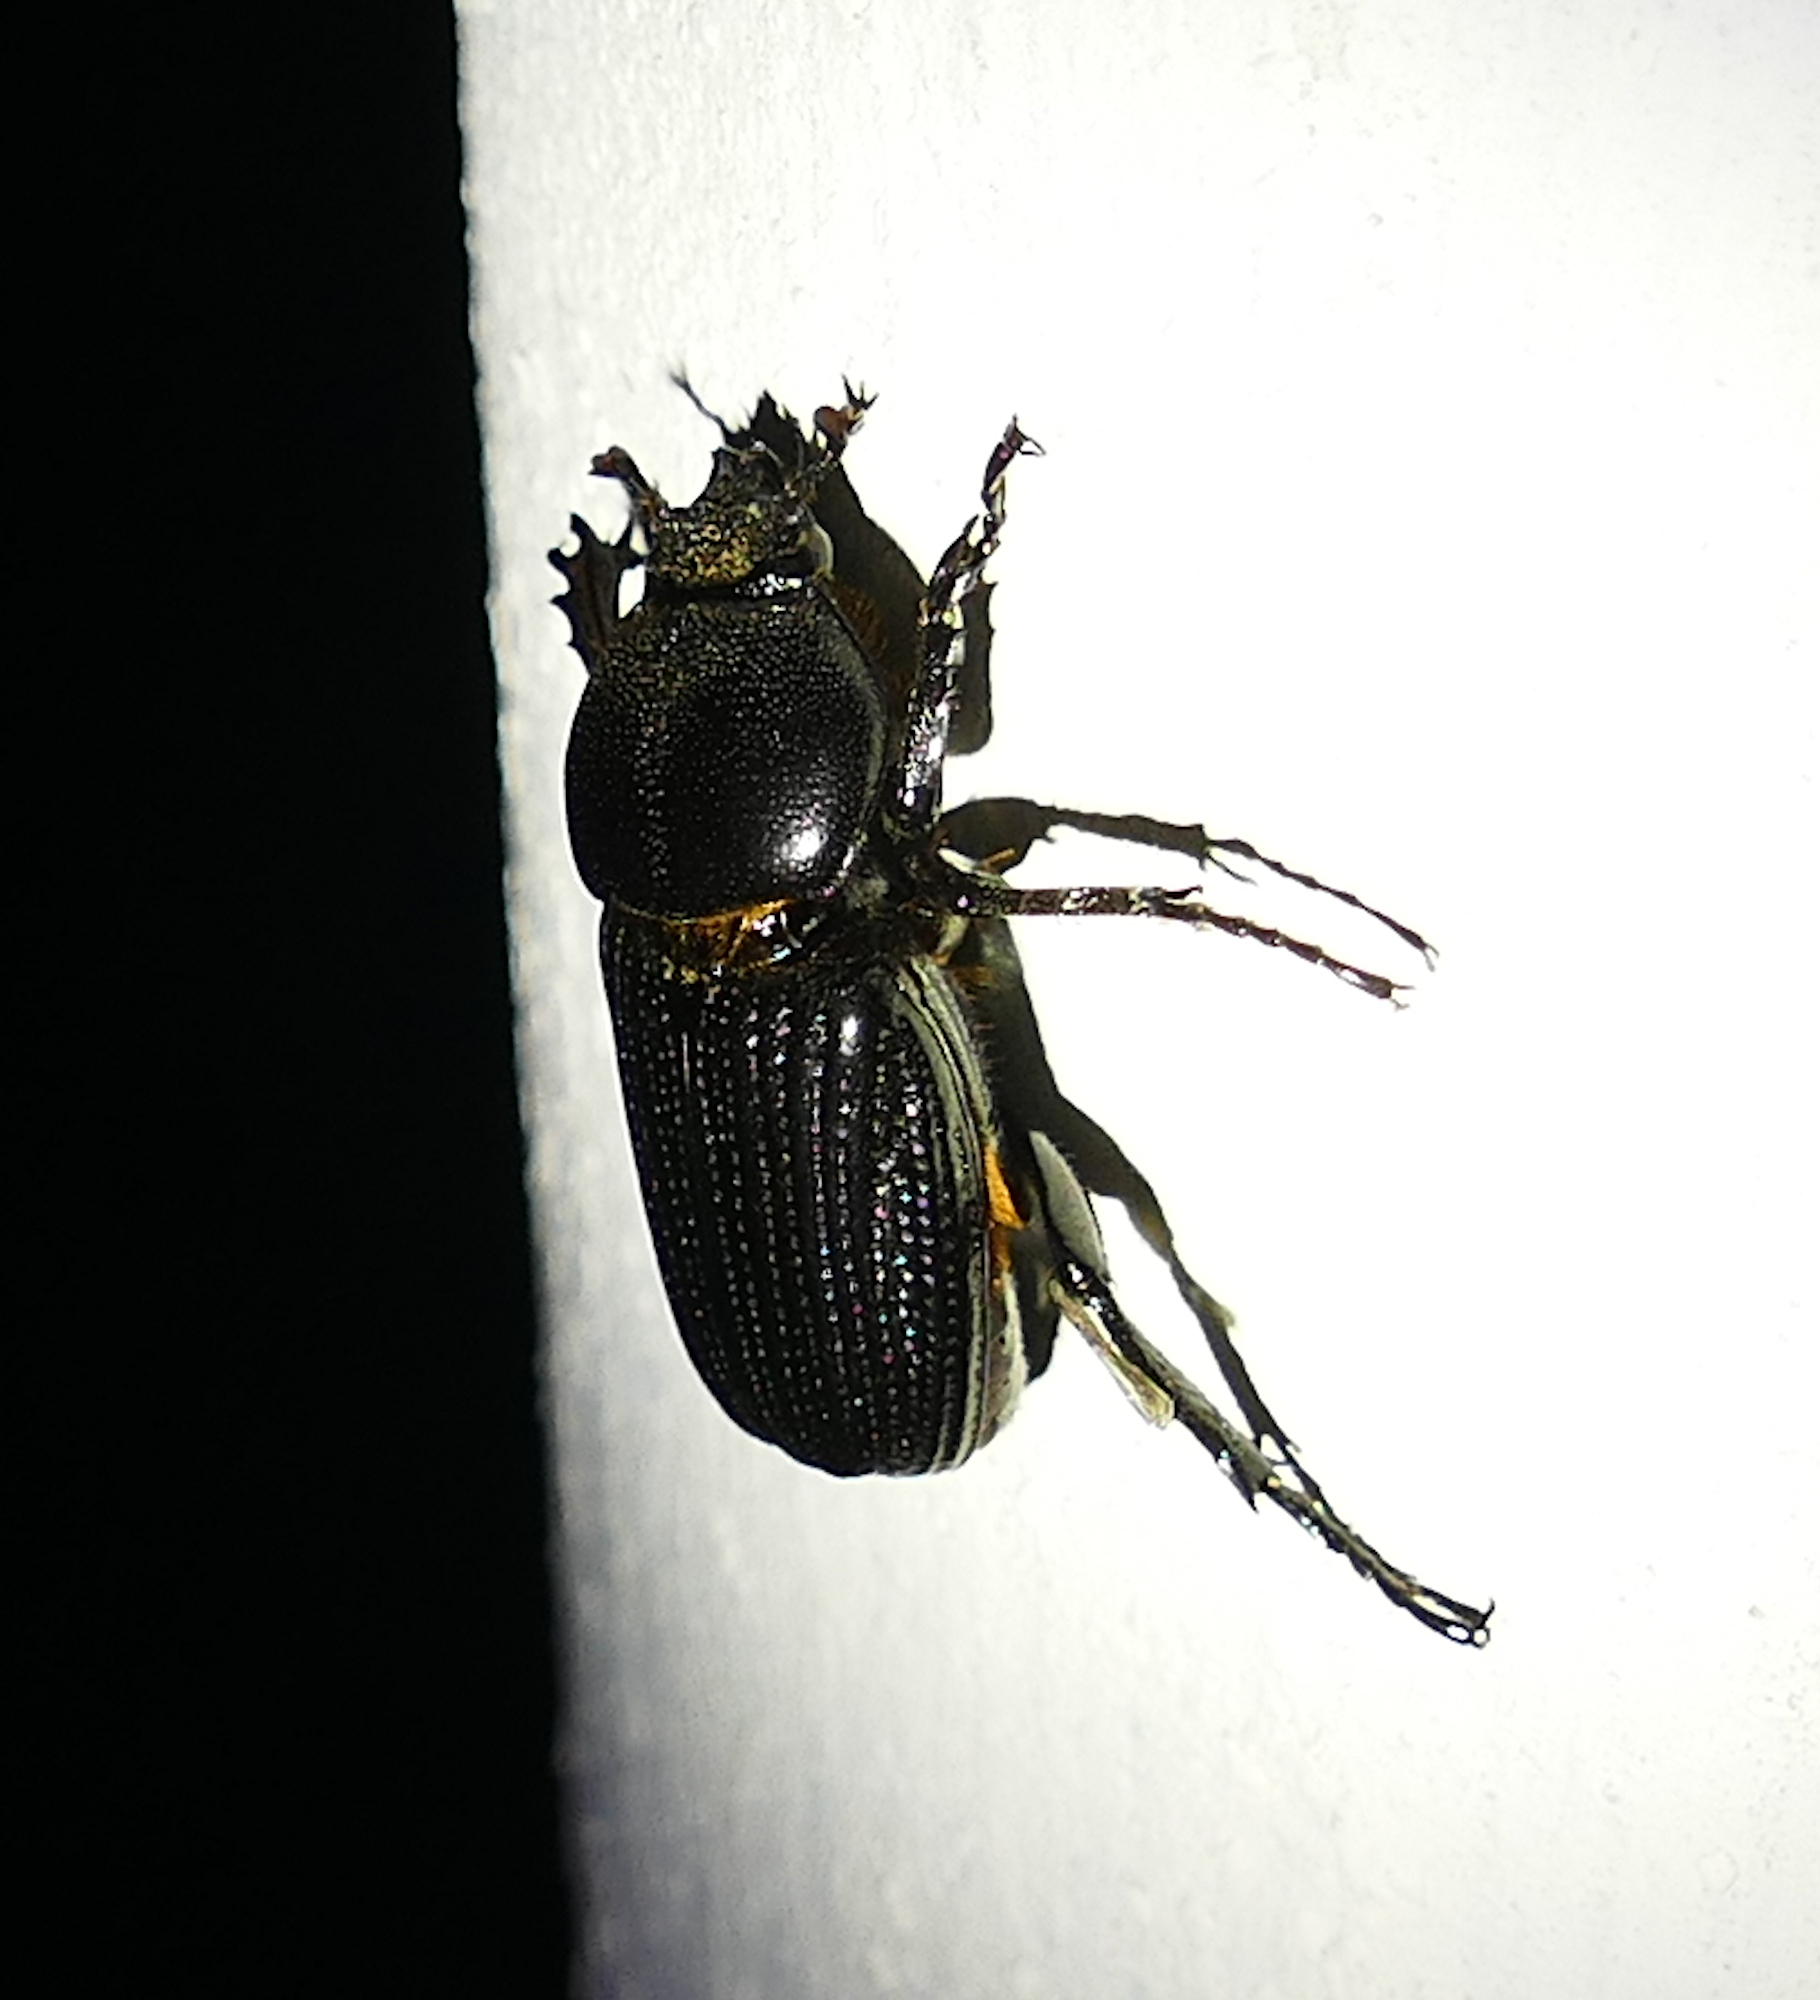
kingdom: Animalia
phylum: Arthropoda
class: Insecta
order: Coleoptera
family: Scarabaeidae
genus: Phileurus
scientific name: Phileurus valgus
